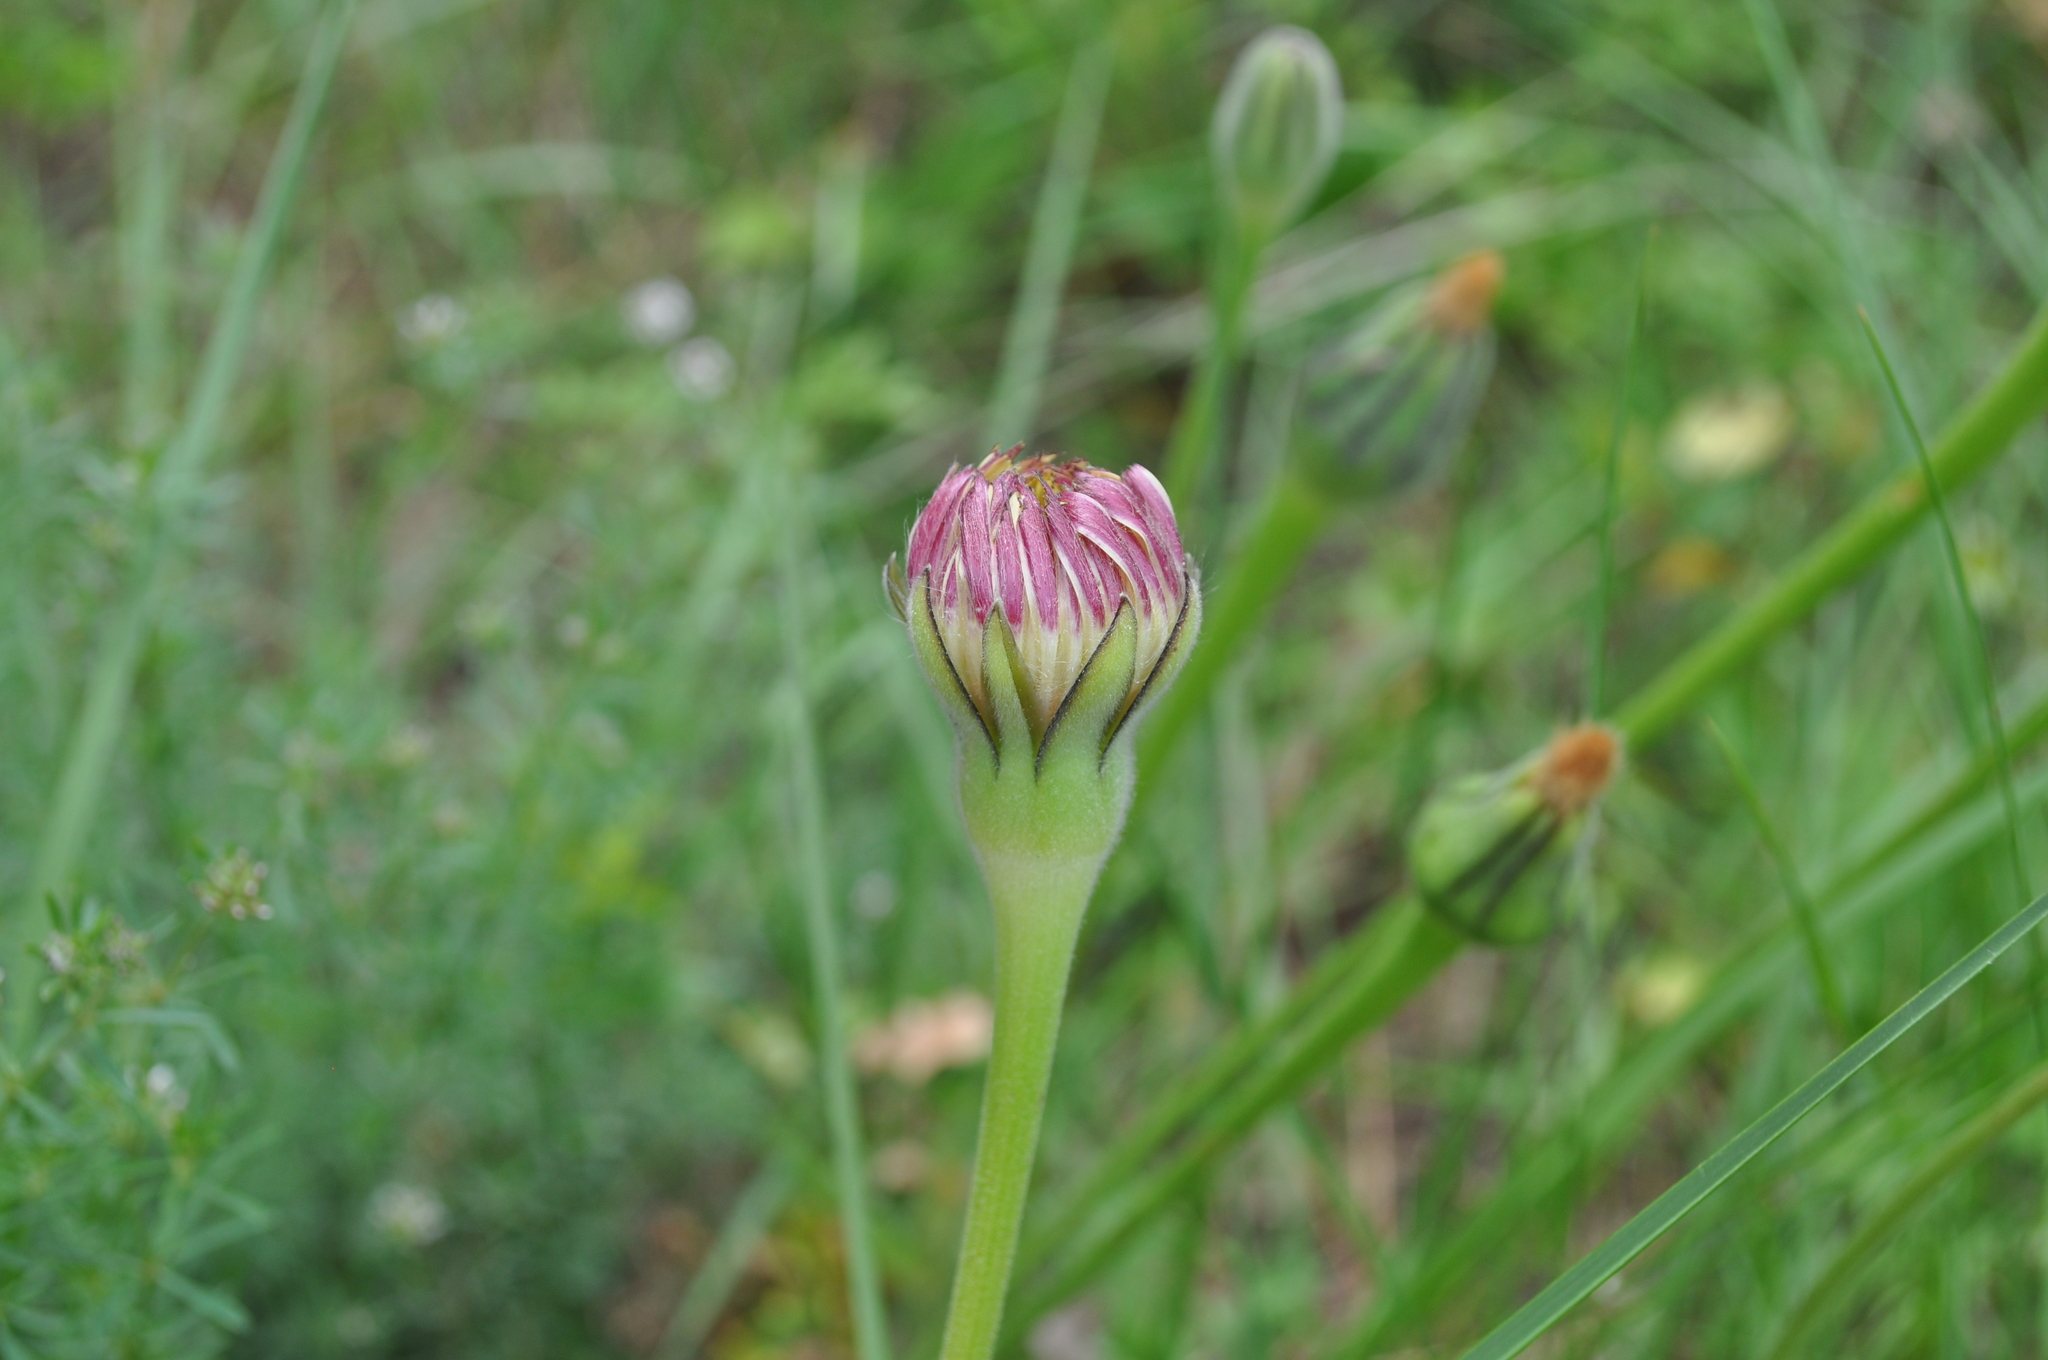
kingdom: Plantae
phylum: Tracheophyta
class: Magnoliopsida
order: Asterales
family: Asteraceae
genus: Urospermum
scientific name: Urospermum dalechampii
